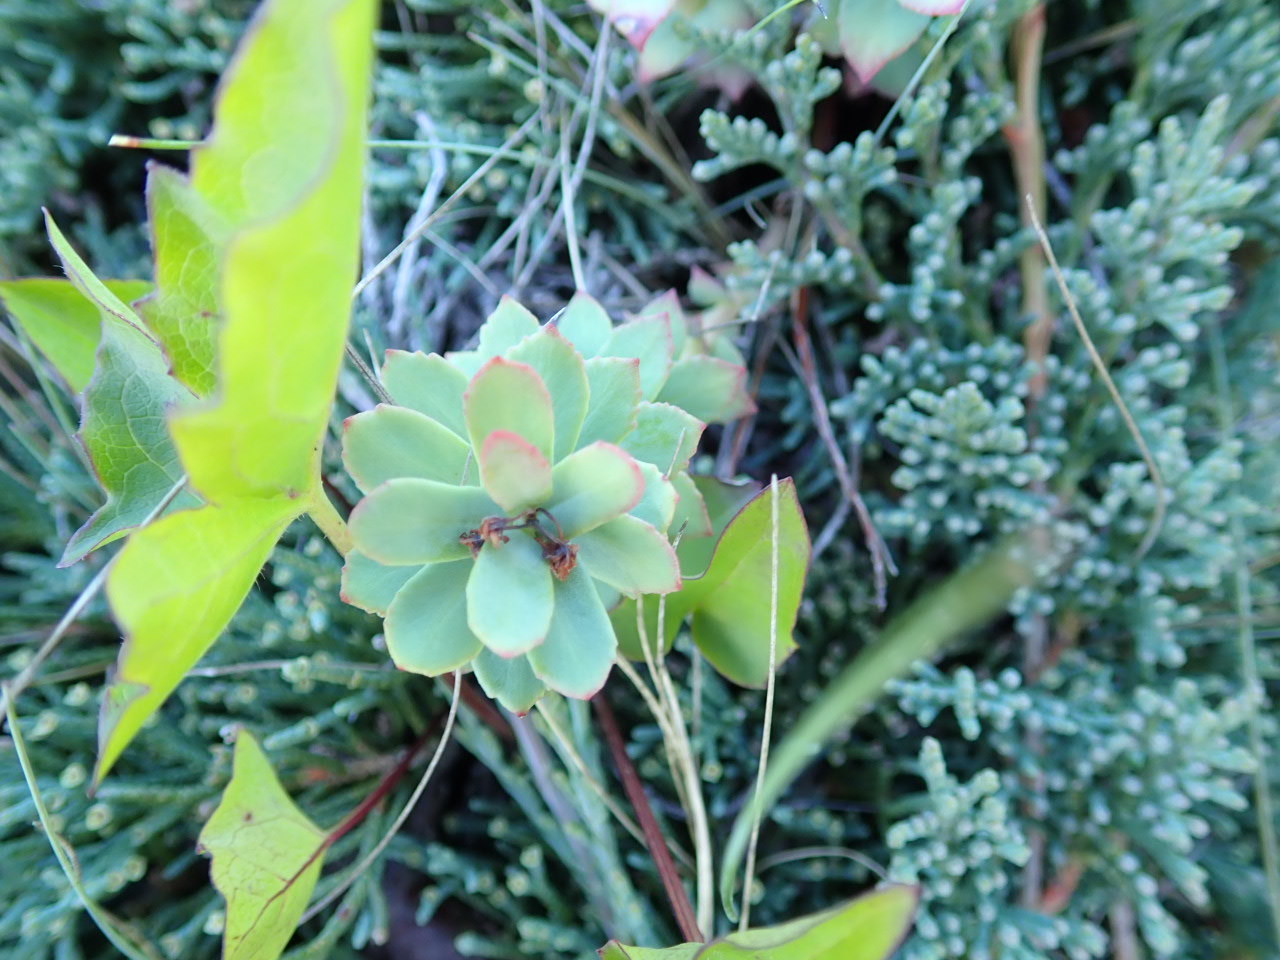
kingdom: Plantae
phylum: Tracheophyta
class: Magnoliopsida
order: Saxifragales
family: Crassulaceae
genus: Rhodiola
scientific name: Rhodiola rosea
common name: Roseroot
